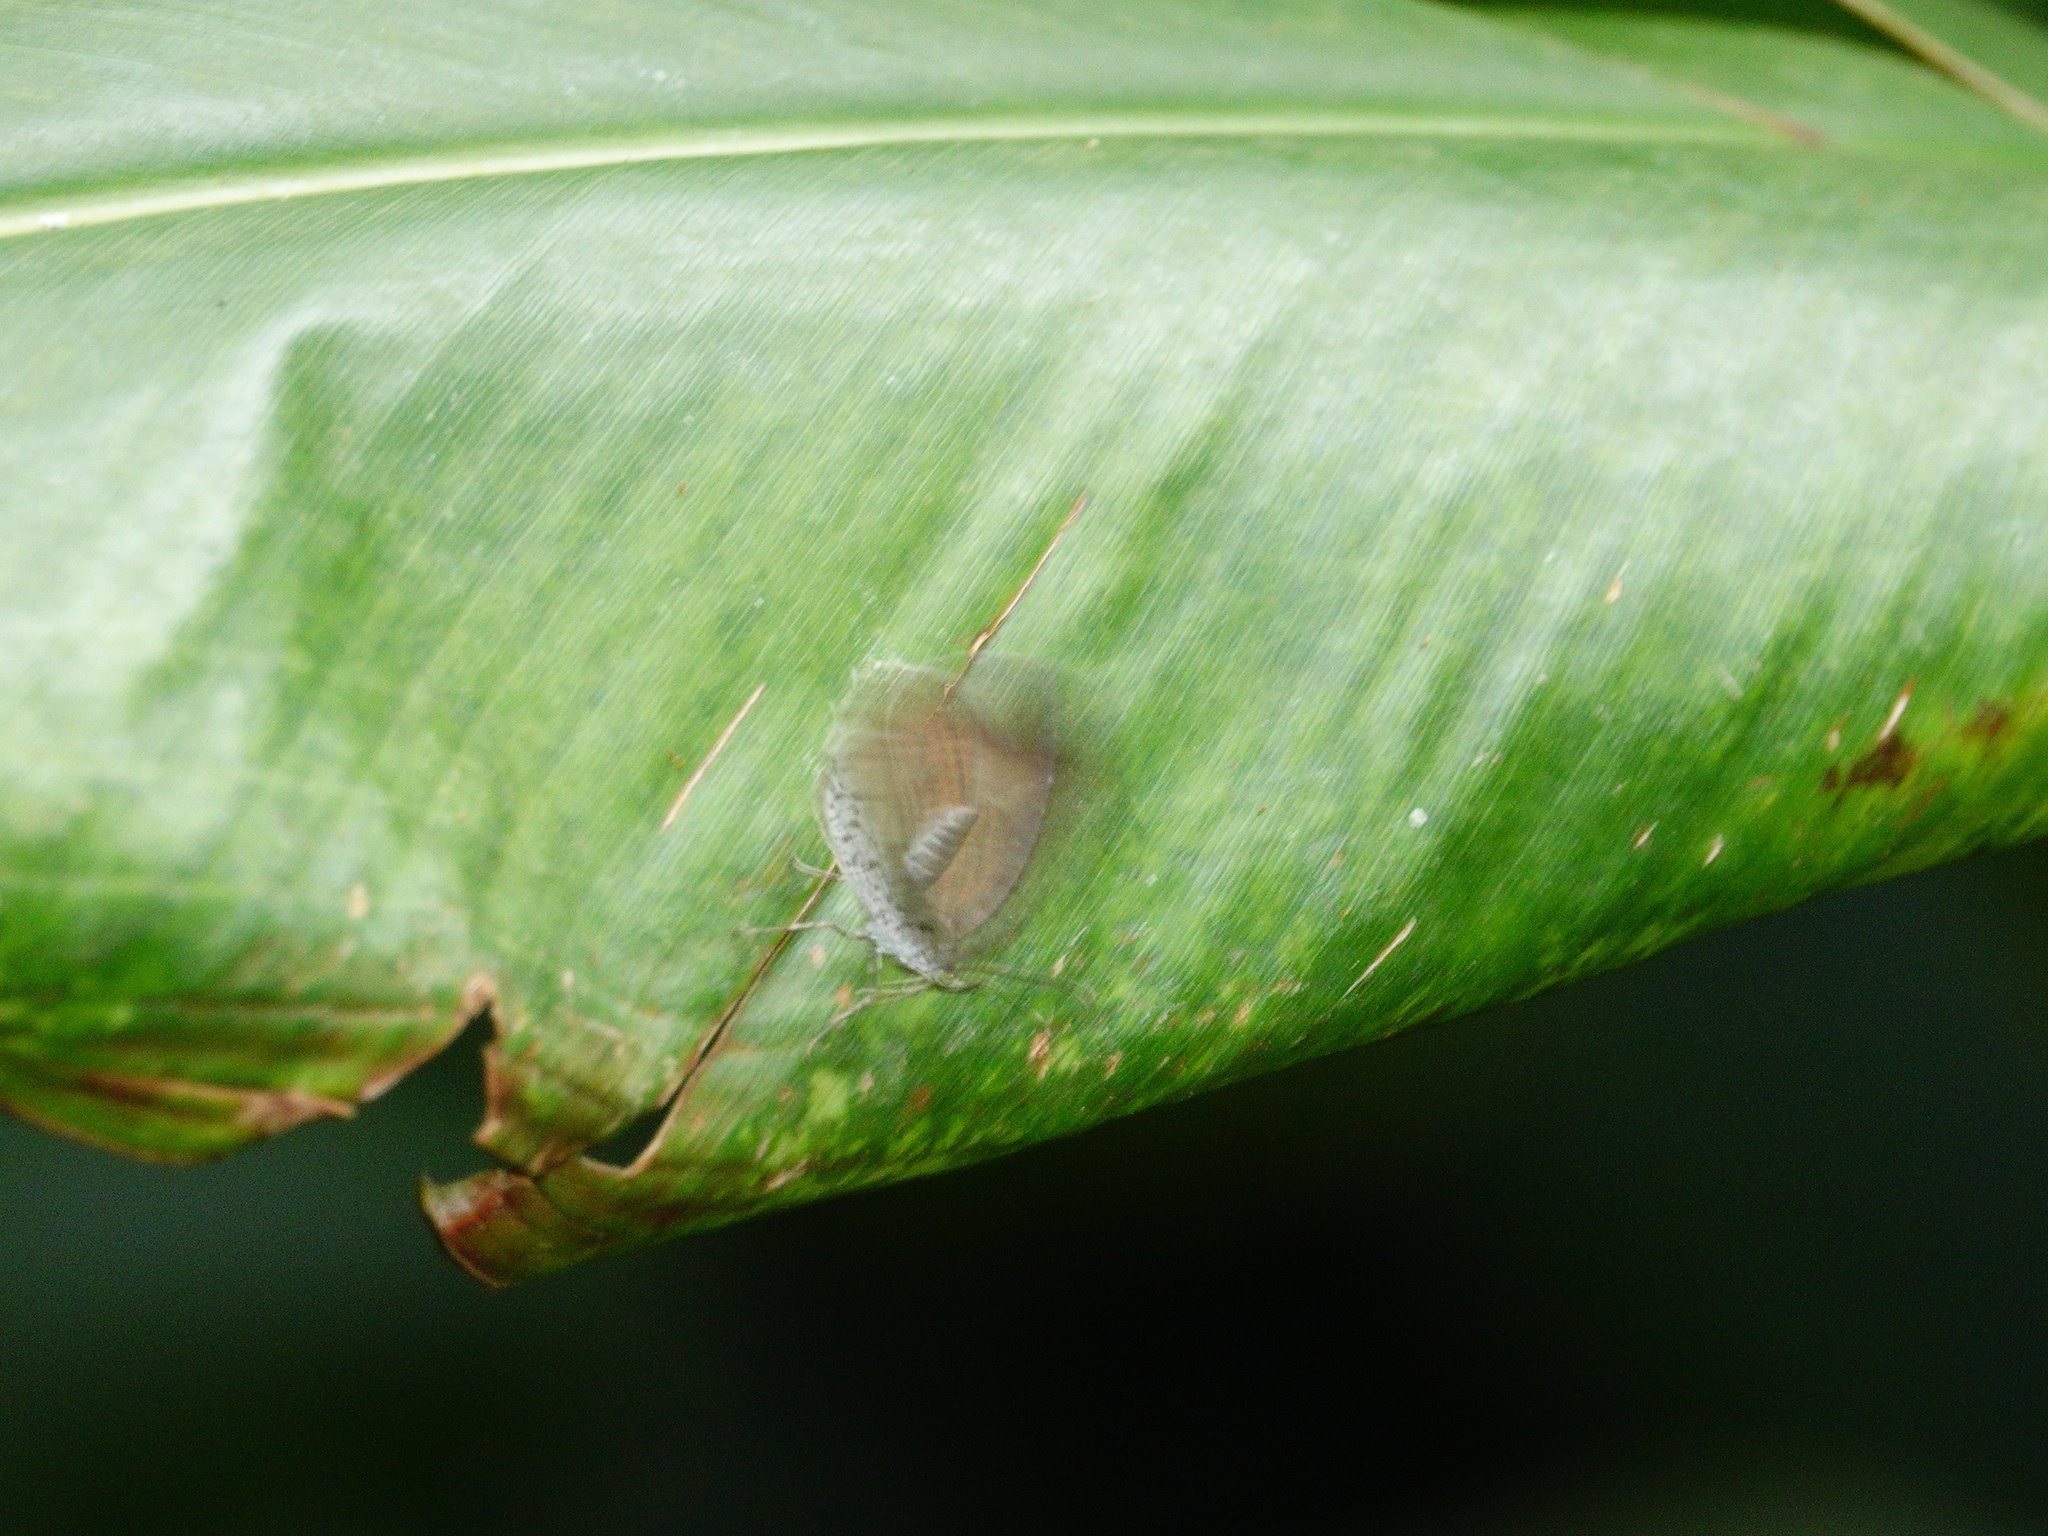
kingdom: Animalia
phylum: Arthropoda
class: Insecta
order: Lepidoptera
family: Lycaenidae
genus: Allotinus
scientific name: Allotinus unicolor
